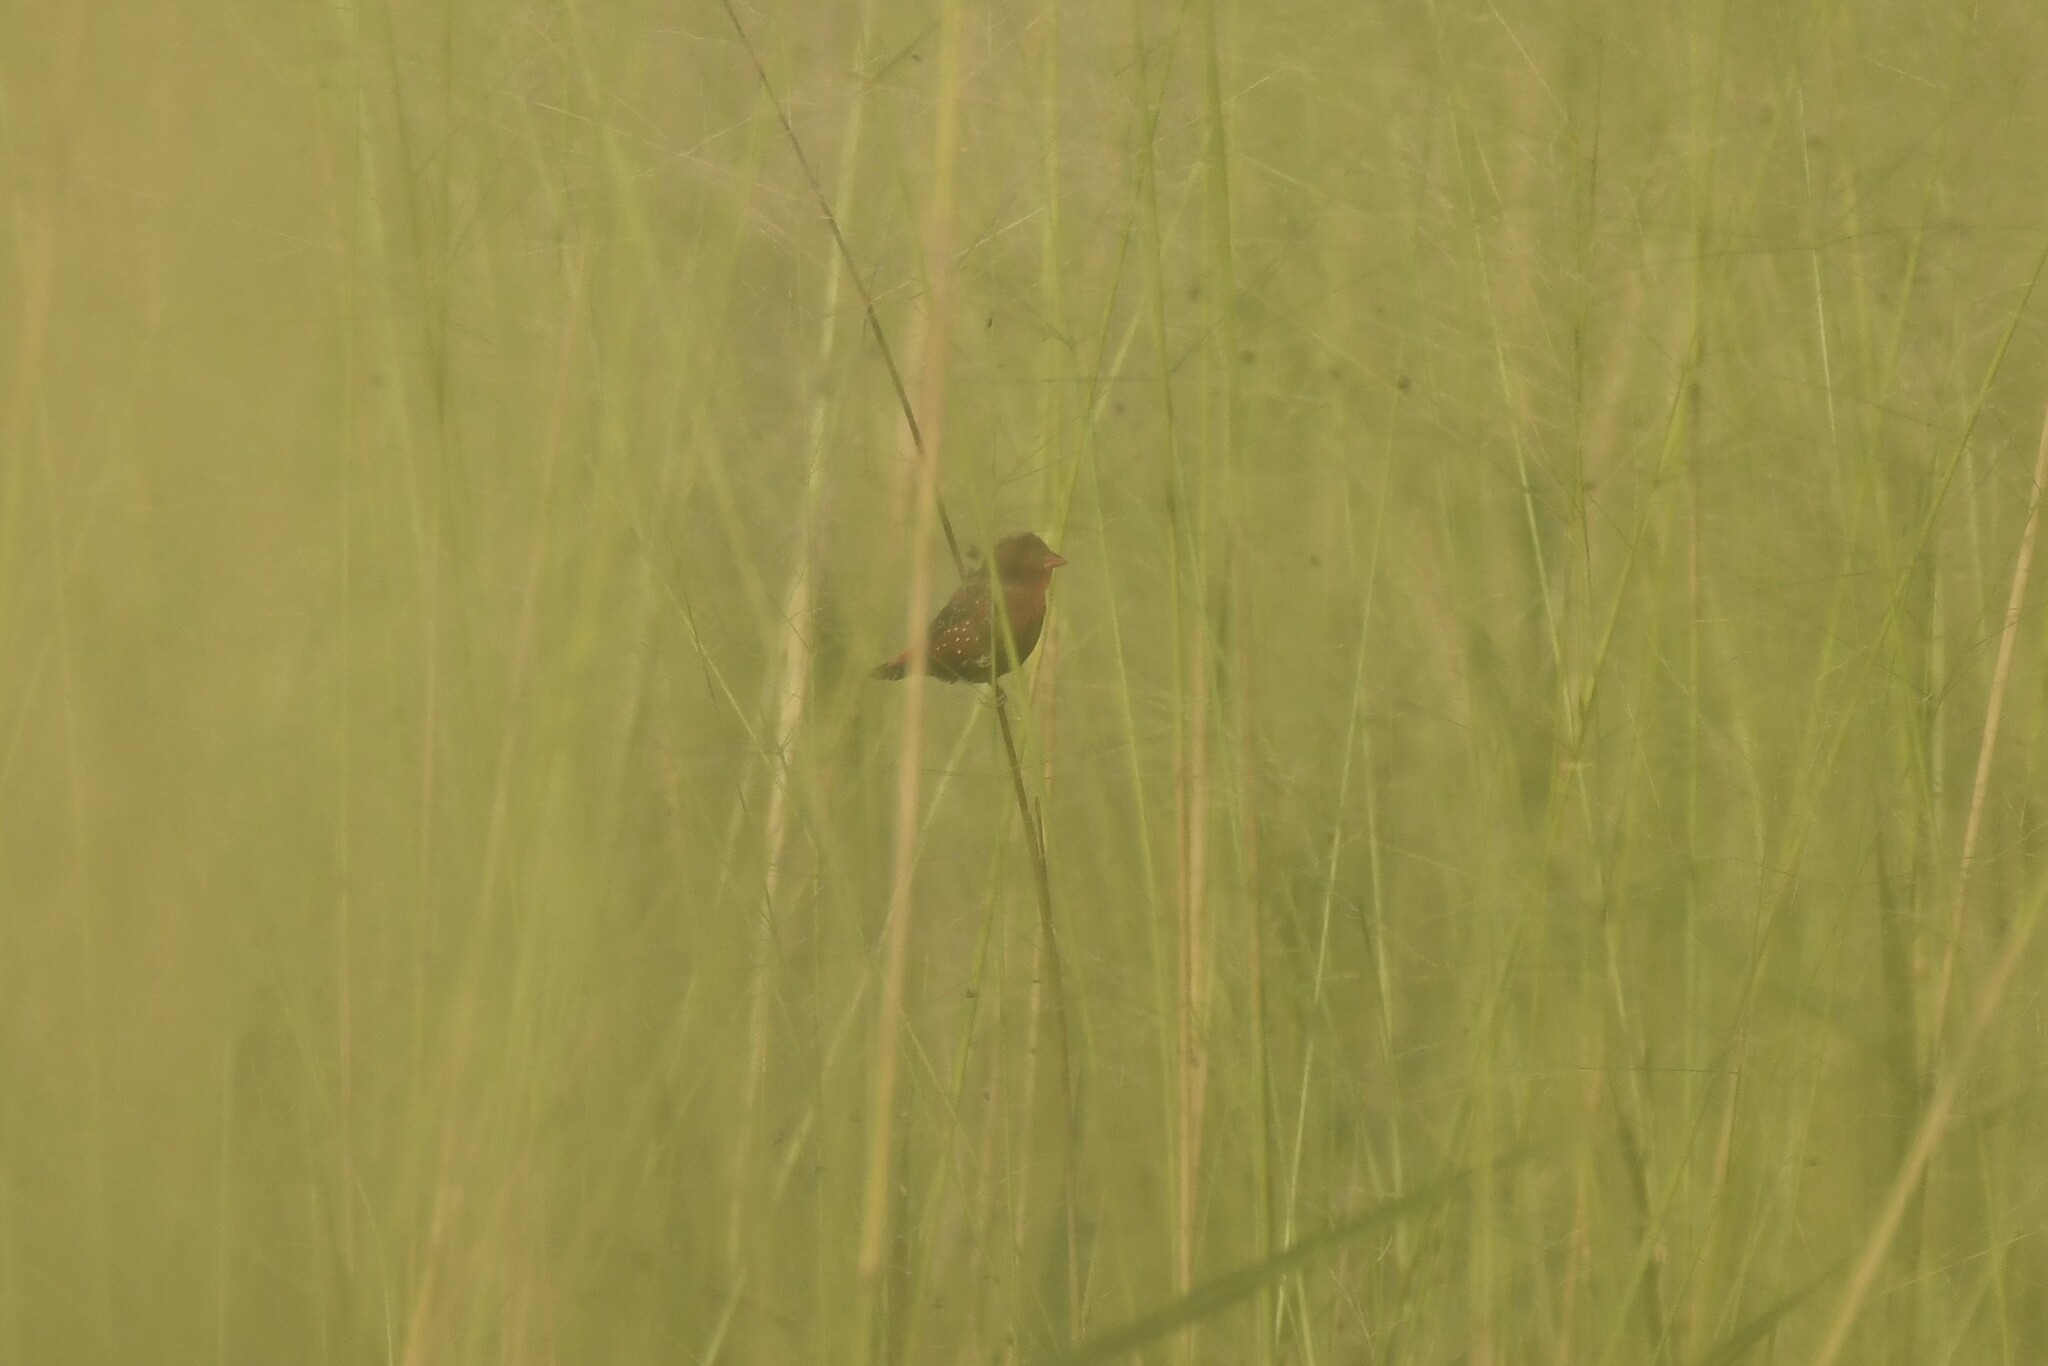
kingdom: Animalia
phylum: Chordata
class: Aves
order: Passeriformes
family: Estrildidae
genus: Amandava
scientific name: Amandava amandava
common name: Red avadavat
